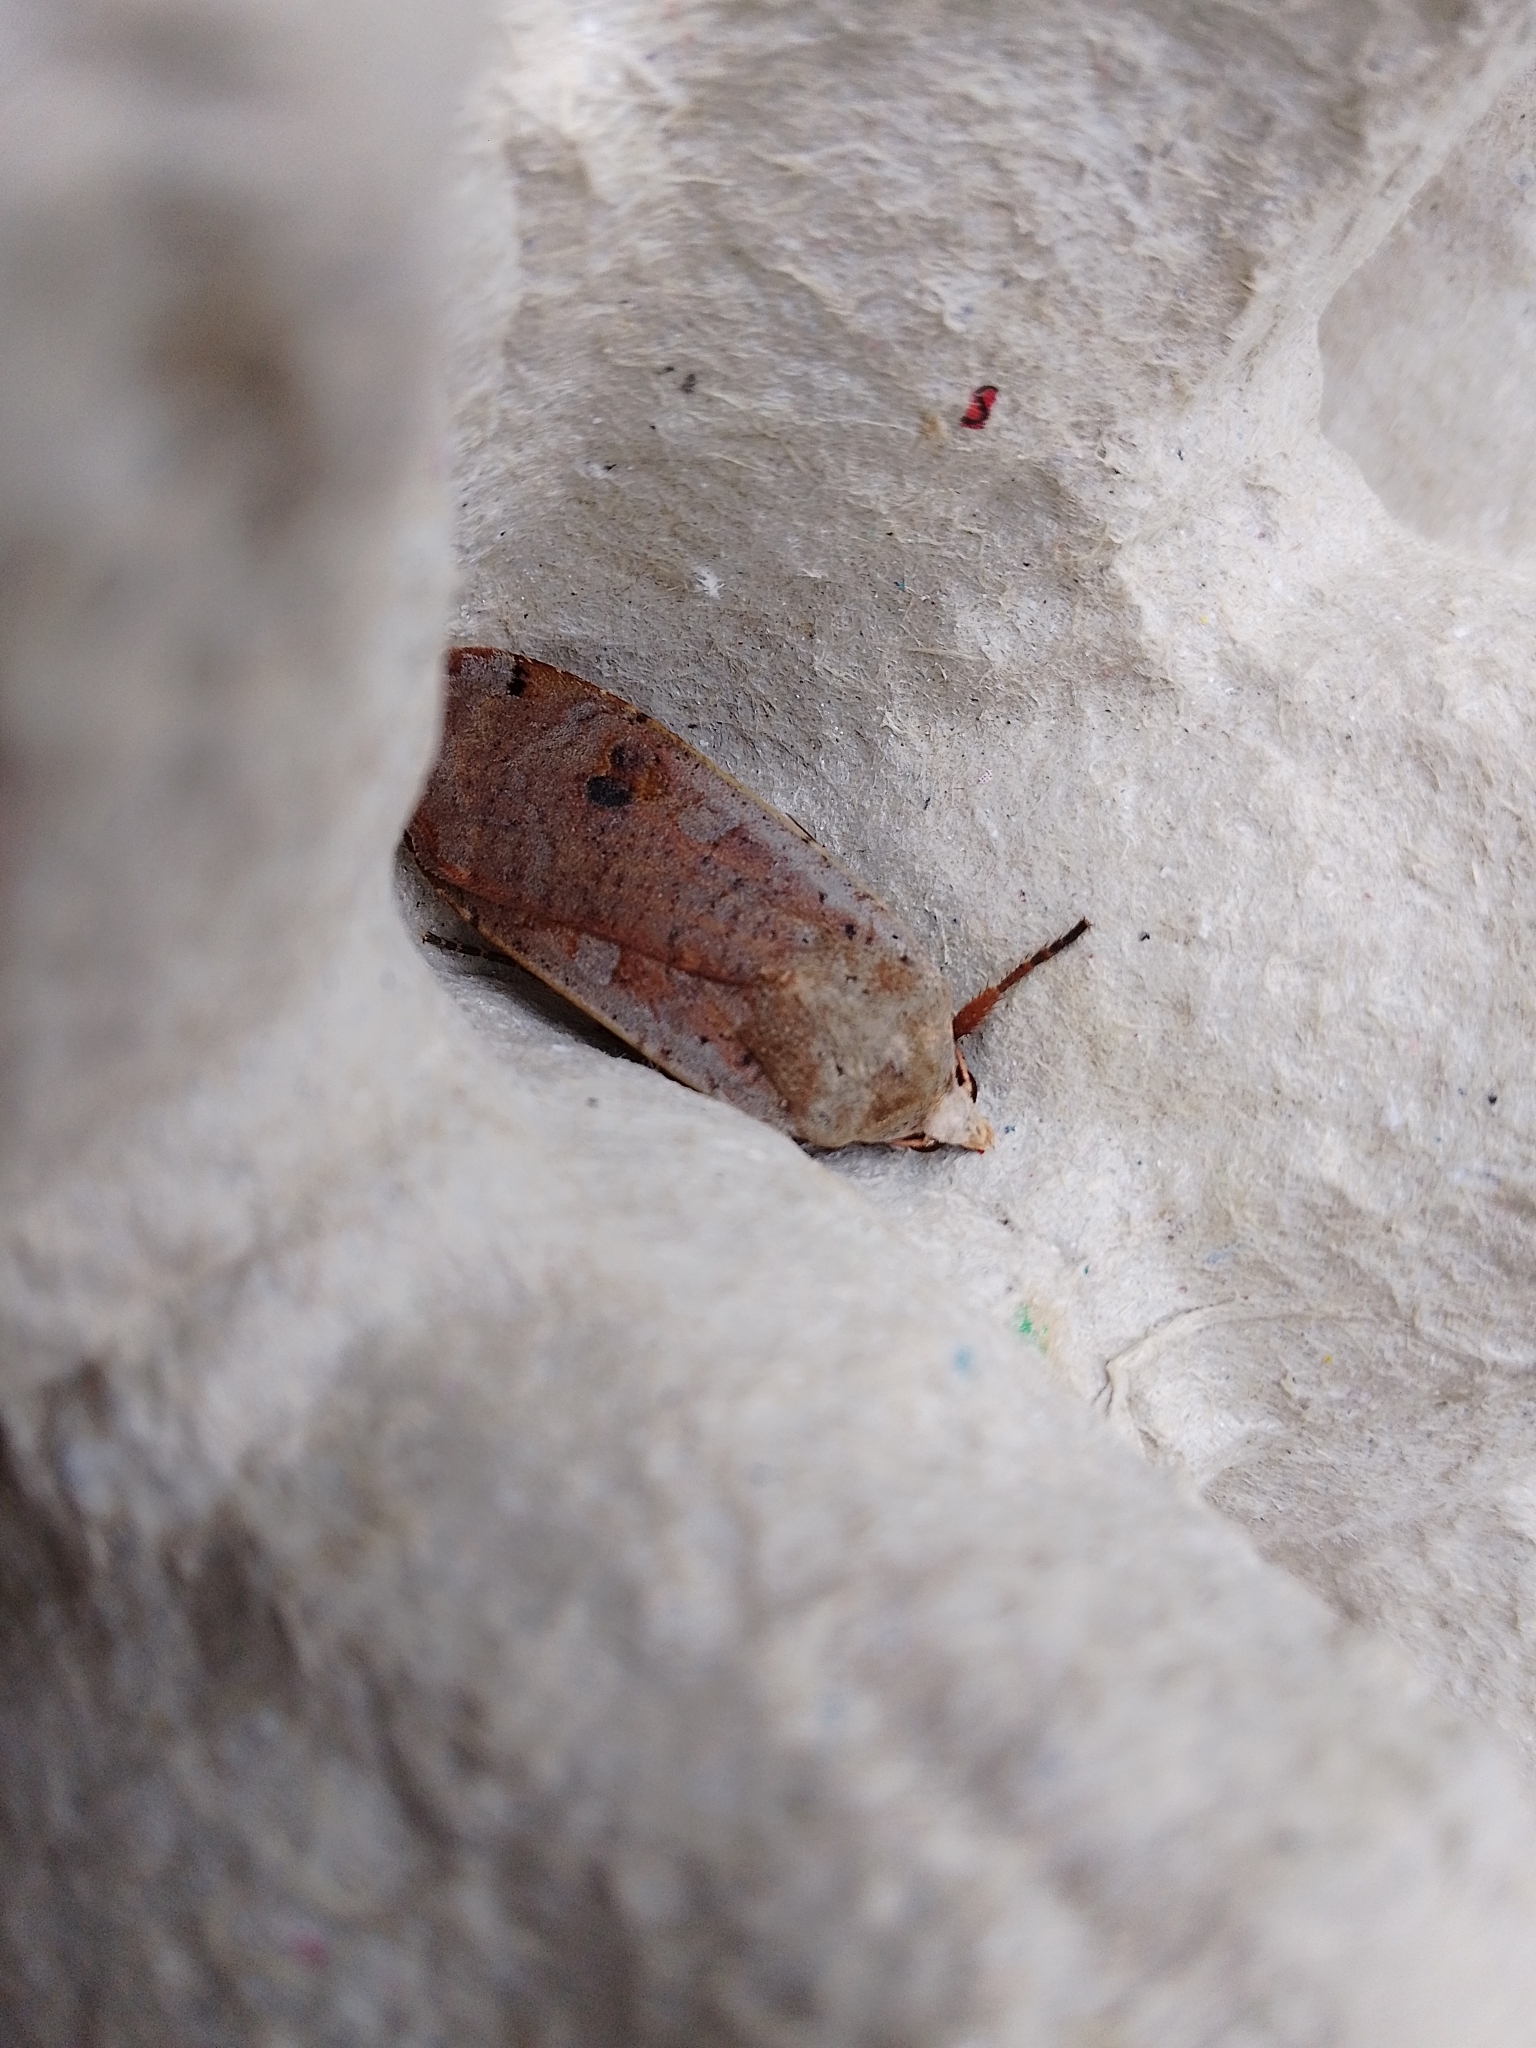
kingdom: Animalia
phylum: Arthropoda
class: Insecta
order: Lepidoptera
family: Noctuidae
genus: Noctua
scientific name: Noctua pronuba
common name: Large yellow underwing
